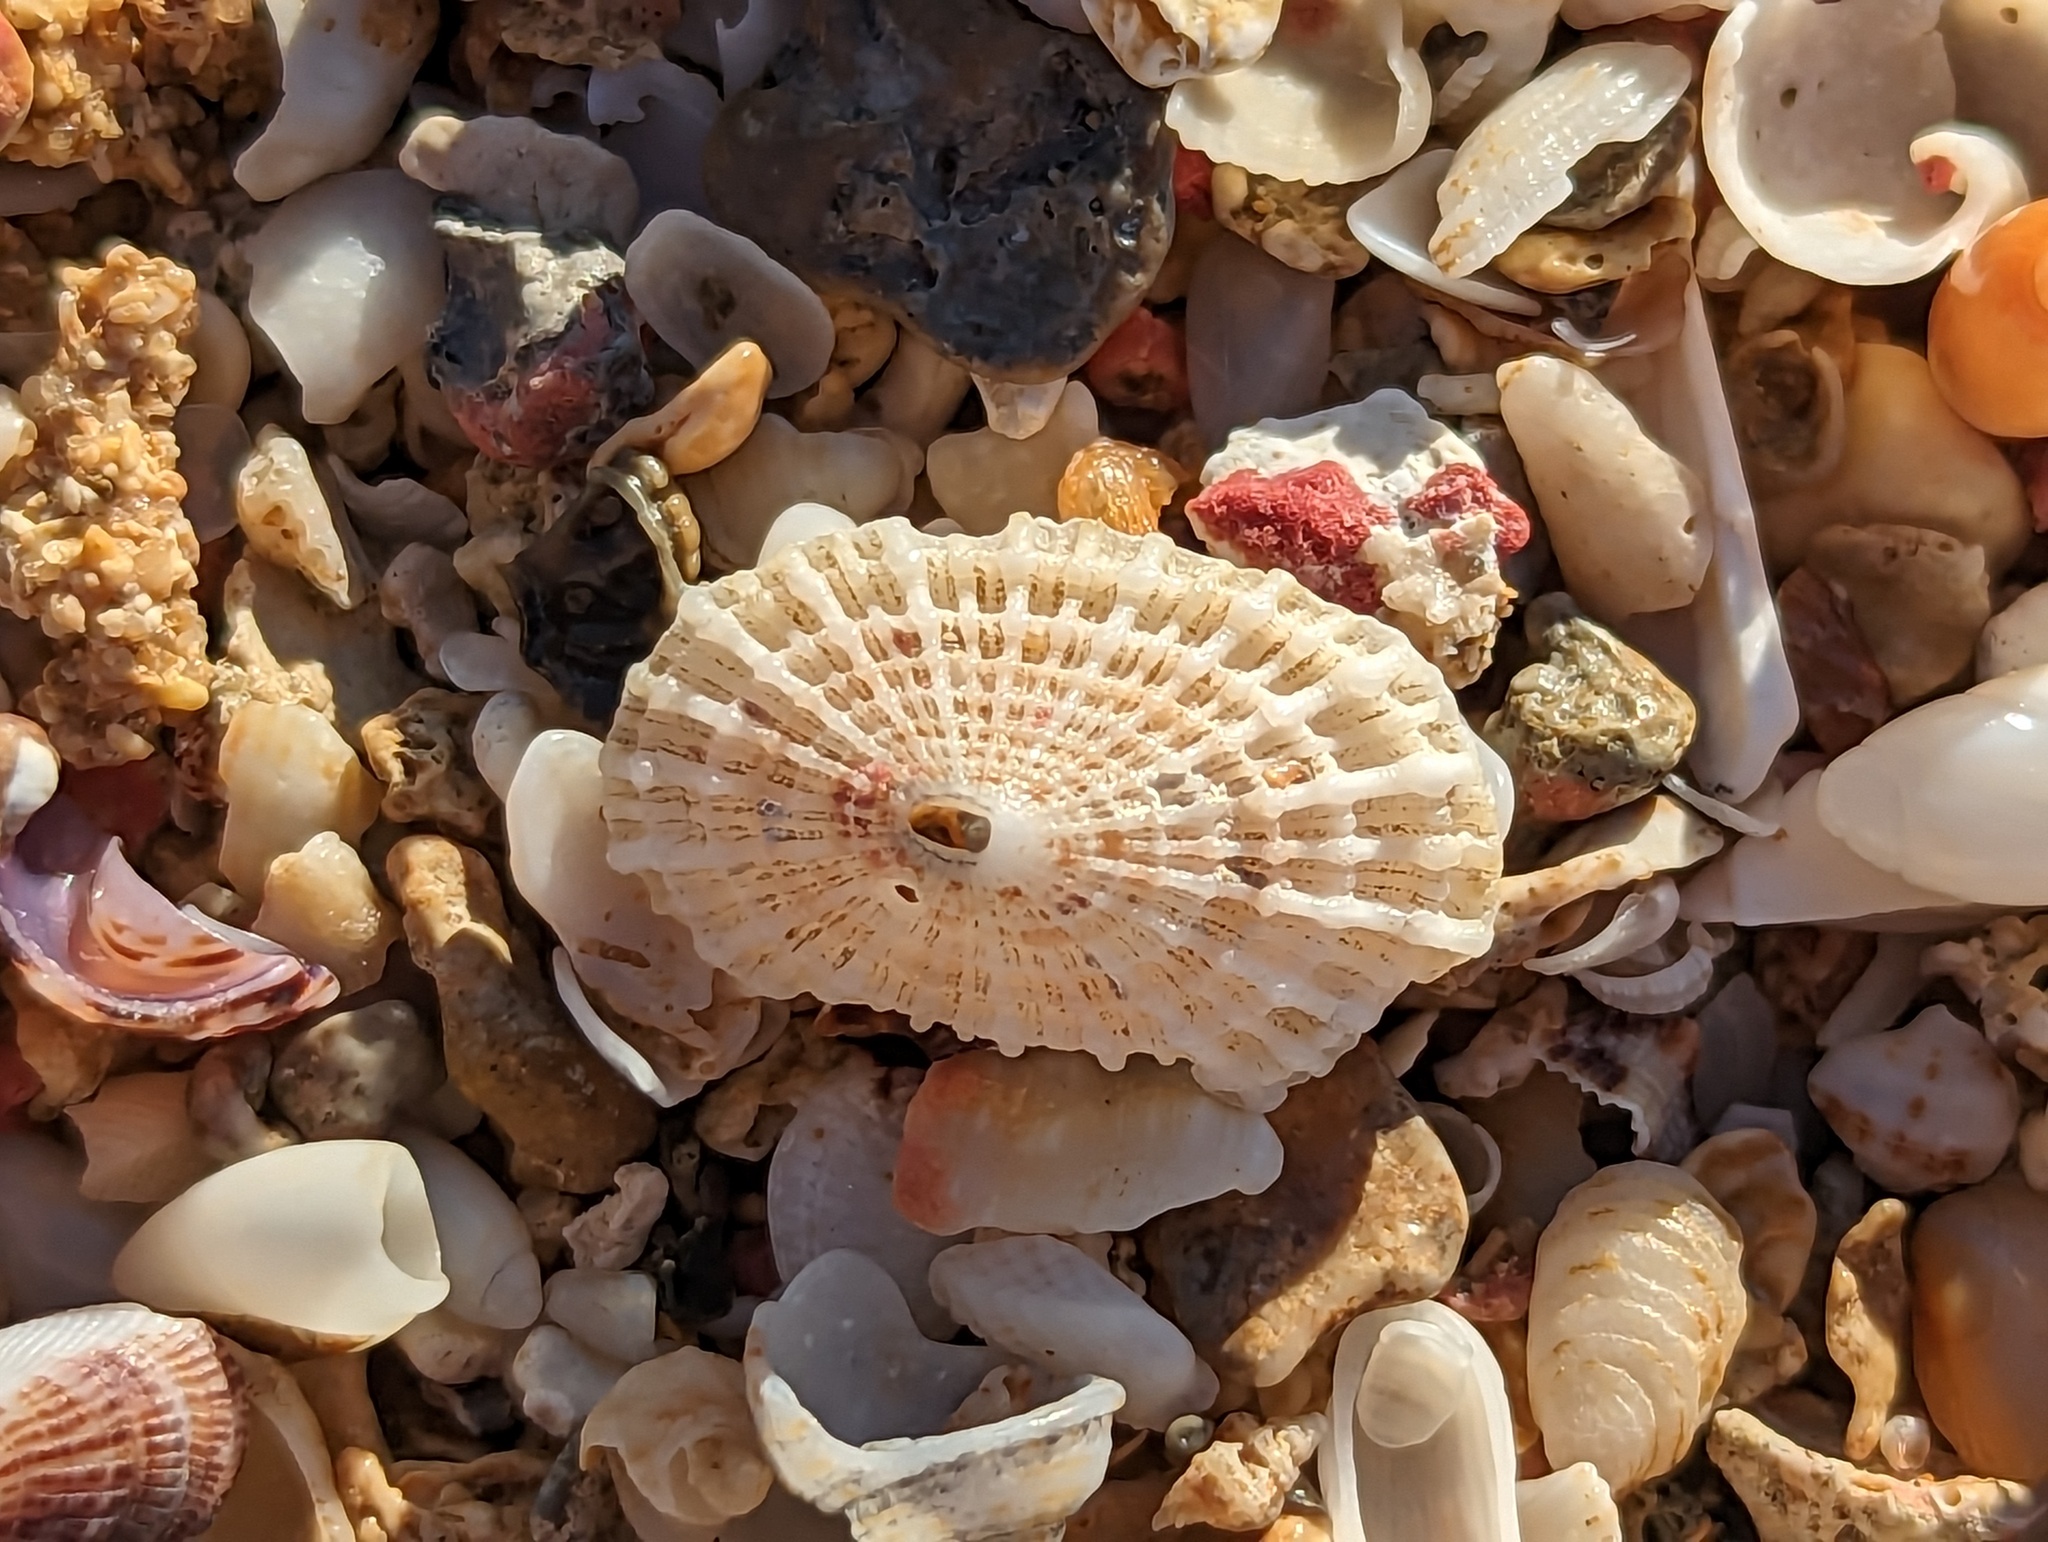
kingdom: Animalia
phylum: Mollusca
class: Gastropoda
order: Lepetellida
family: Fissurellidae
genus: Diodora
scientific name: Diodora listeri
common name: Lister's key-hole limpet
